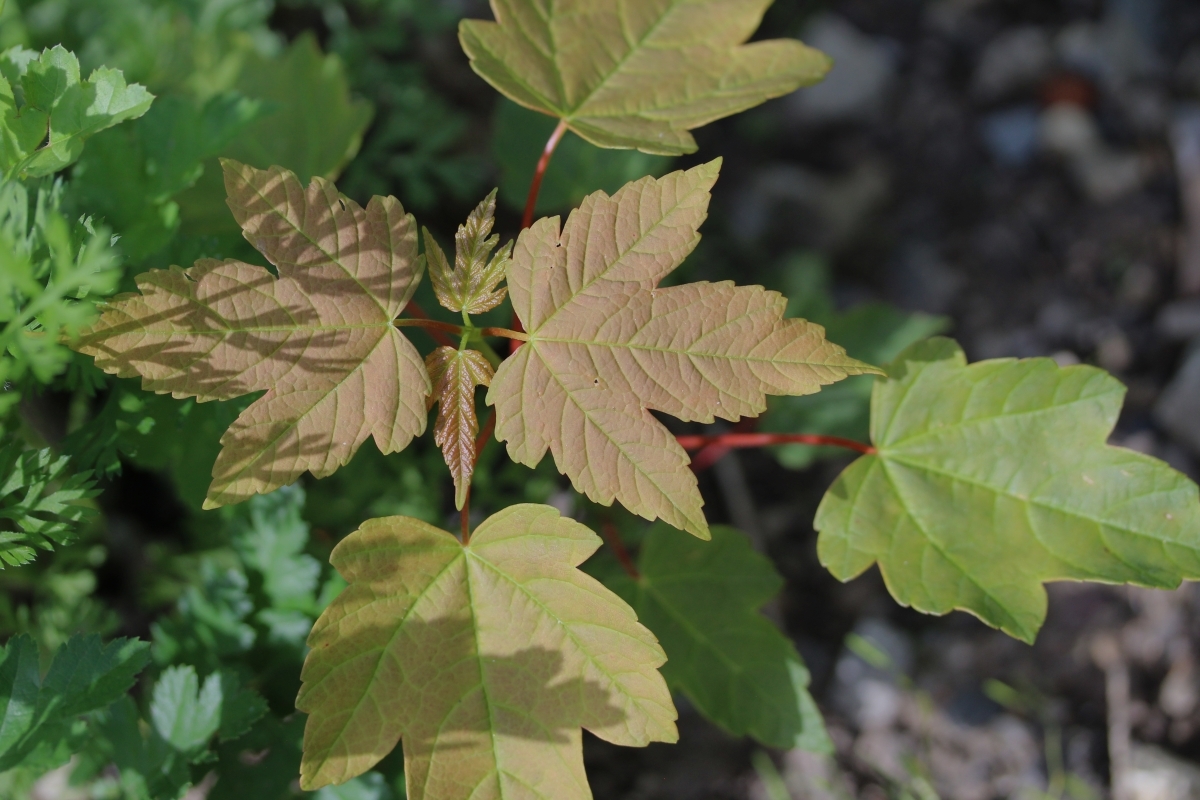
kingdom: Plantae
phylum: Tracheophyta
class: Magnoliopsida
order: Sapindales
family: Sapindaceae
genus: Acer
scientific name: Acer pseudoplatanus
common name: Sycamore
